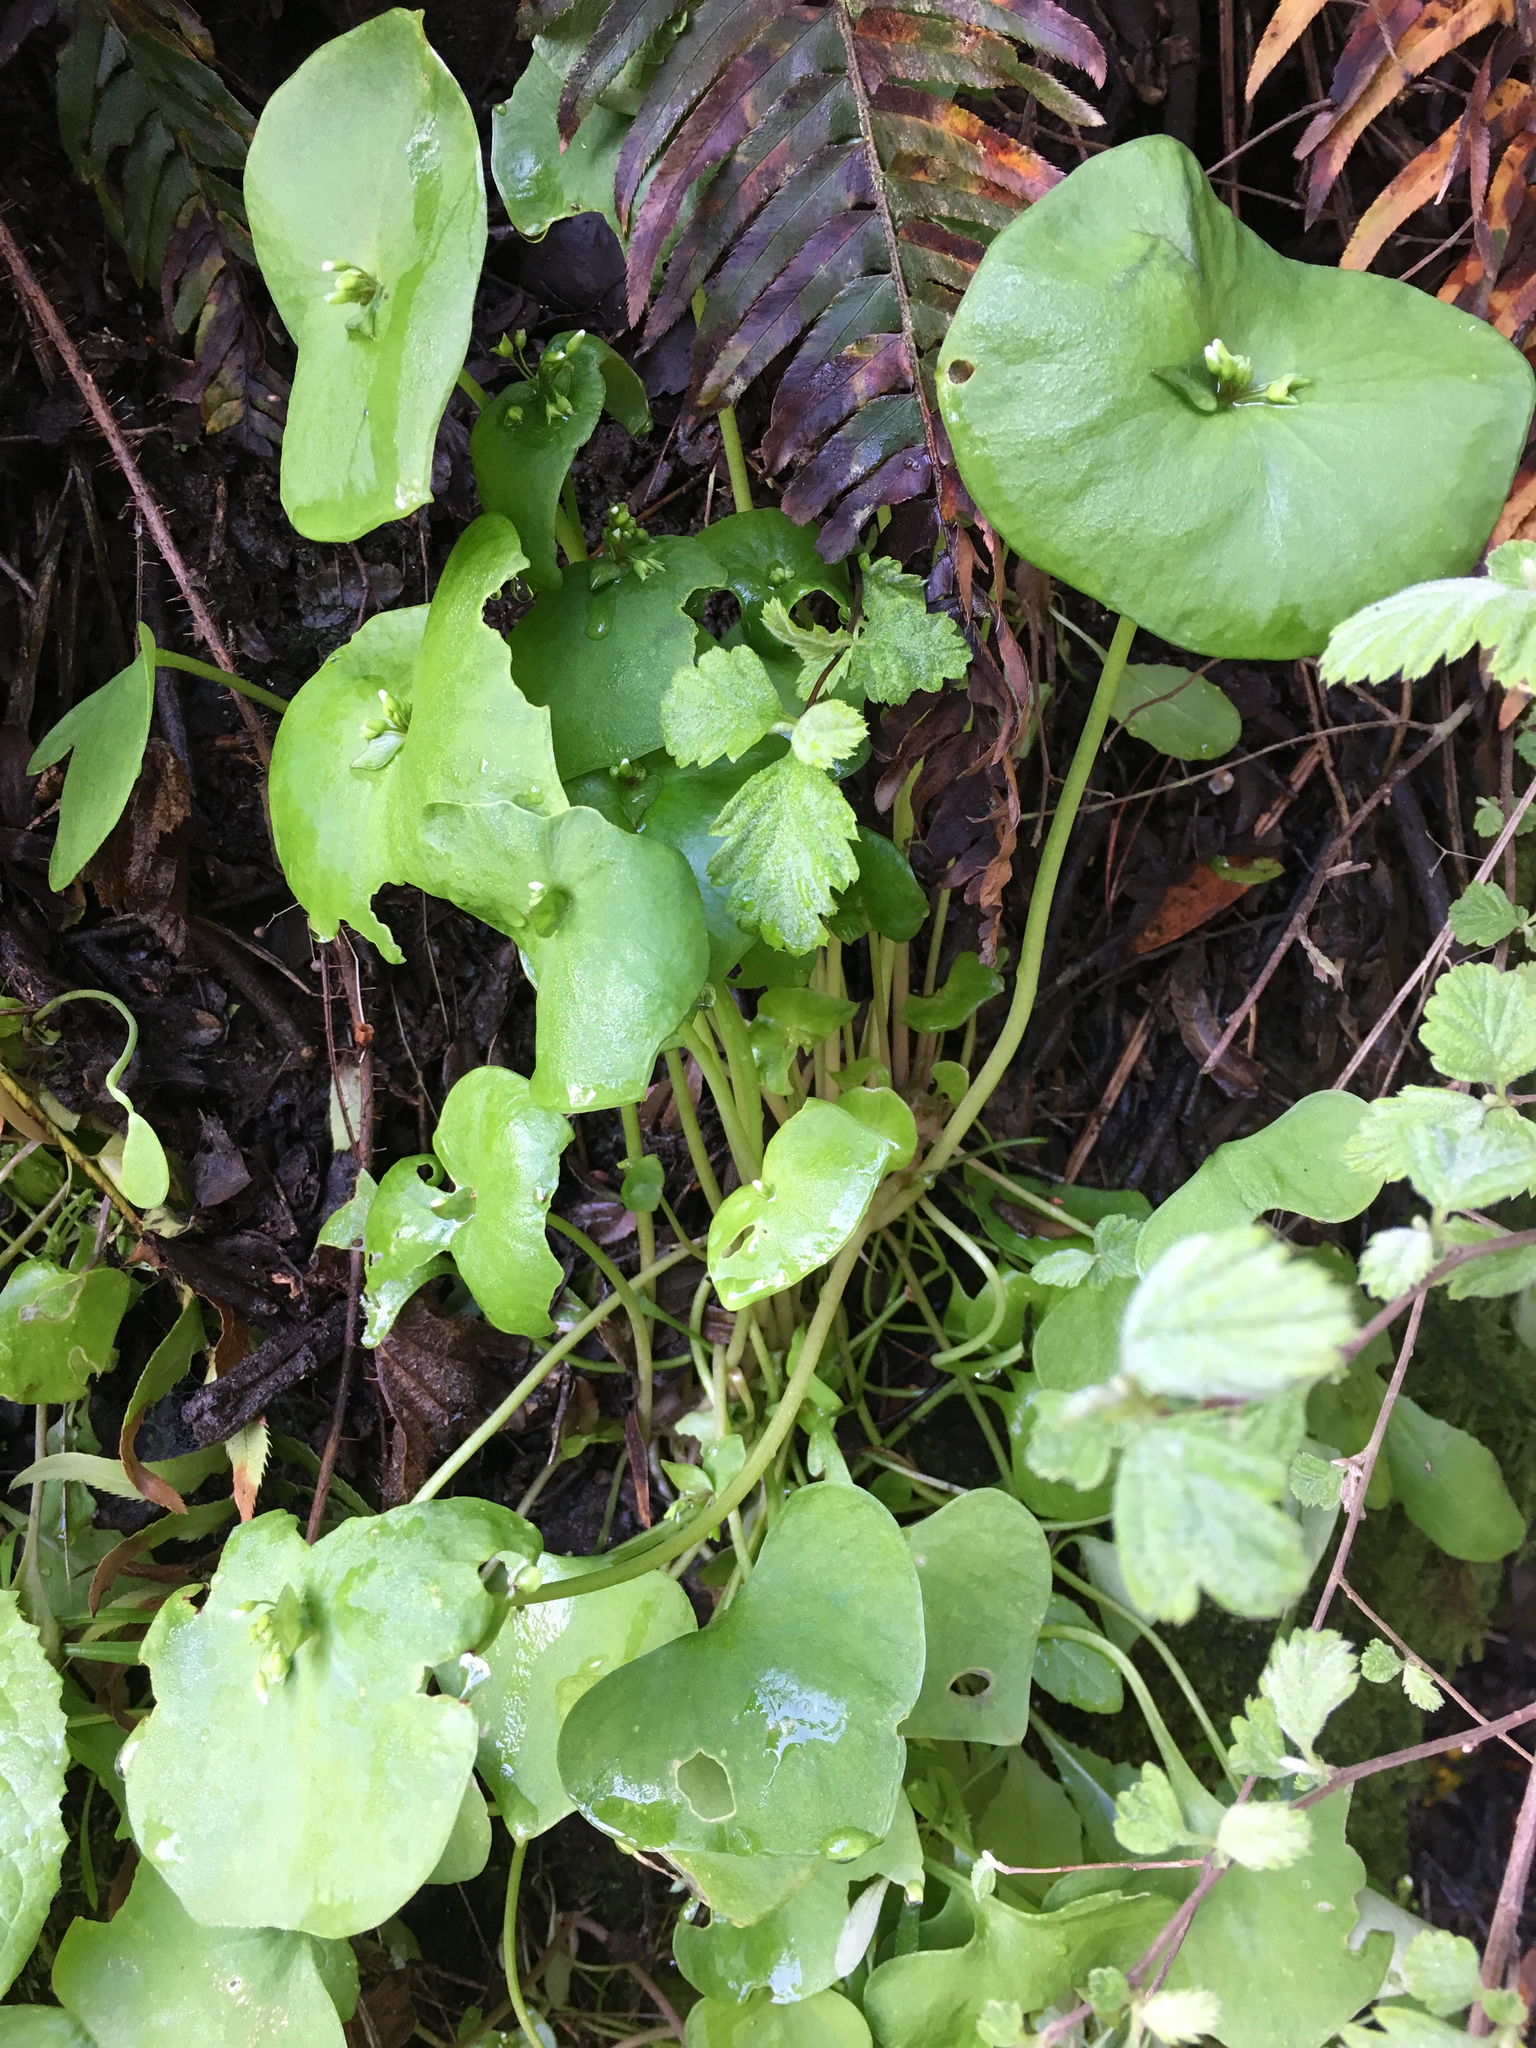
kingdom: Plantae
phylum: Tracheophyta
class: Magnoliopsida
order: Caryophyllales
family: Montiaceae
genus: Claytonia
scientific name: Claytonia perfoliata
